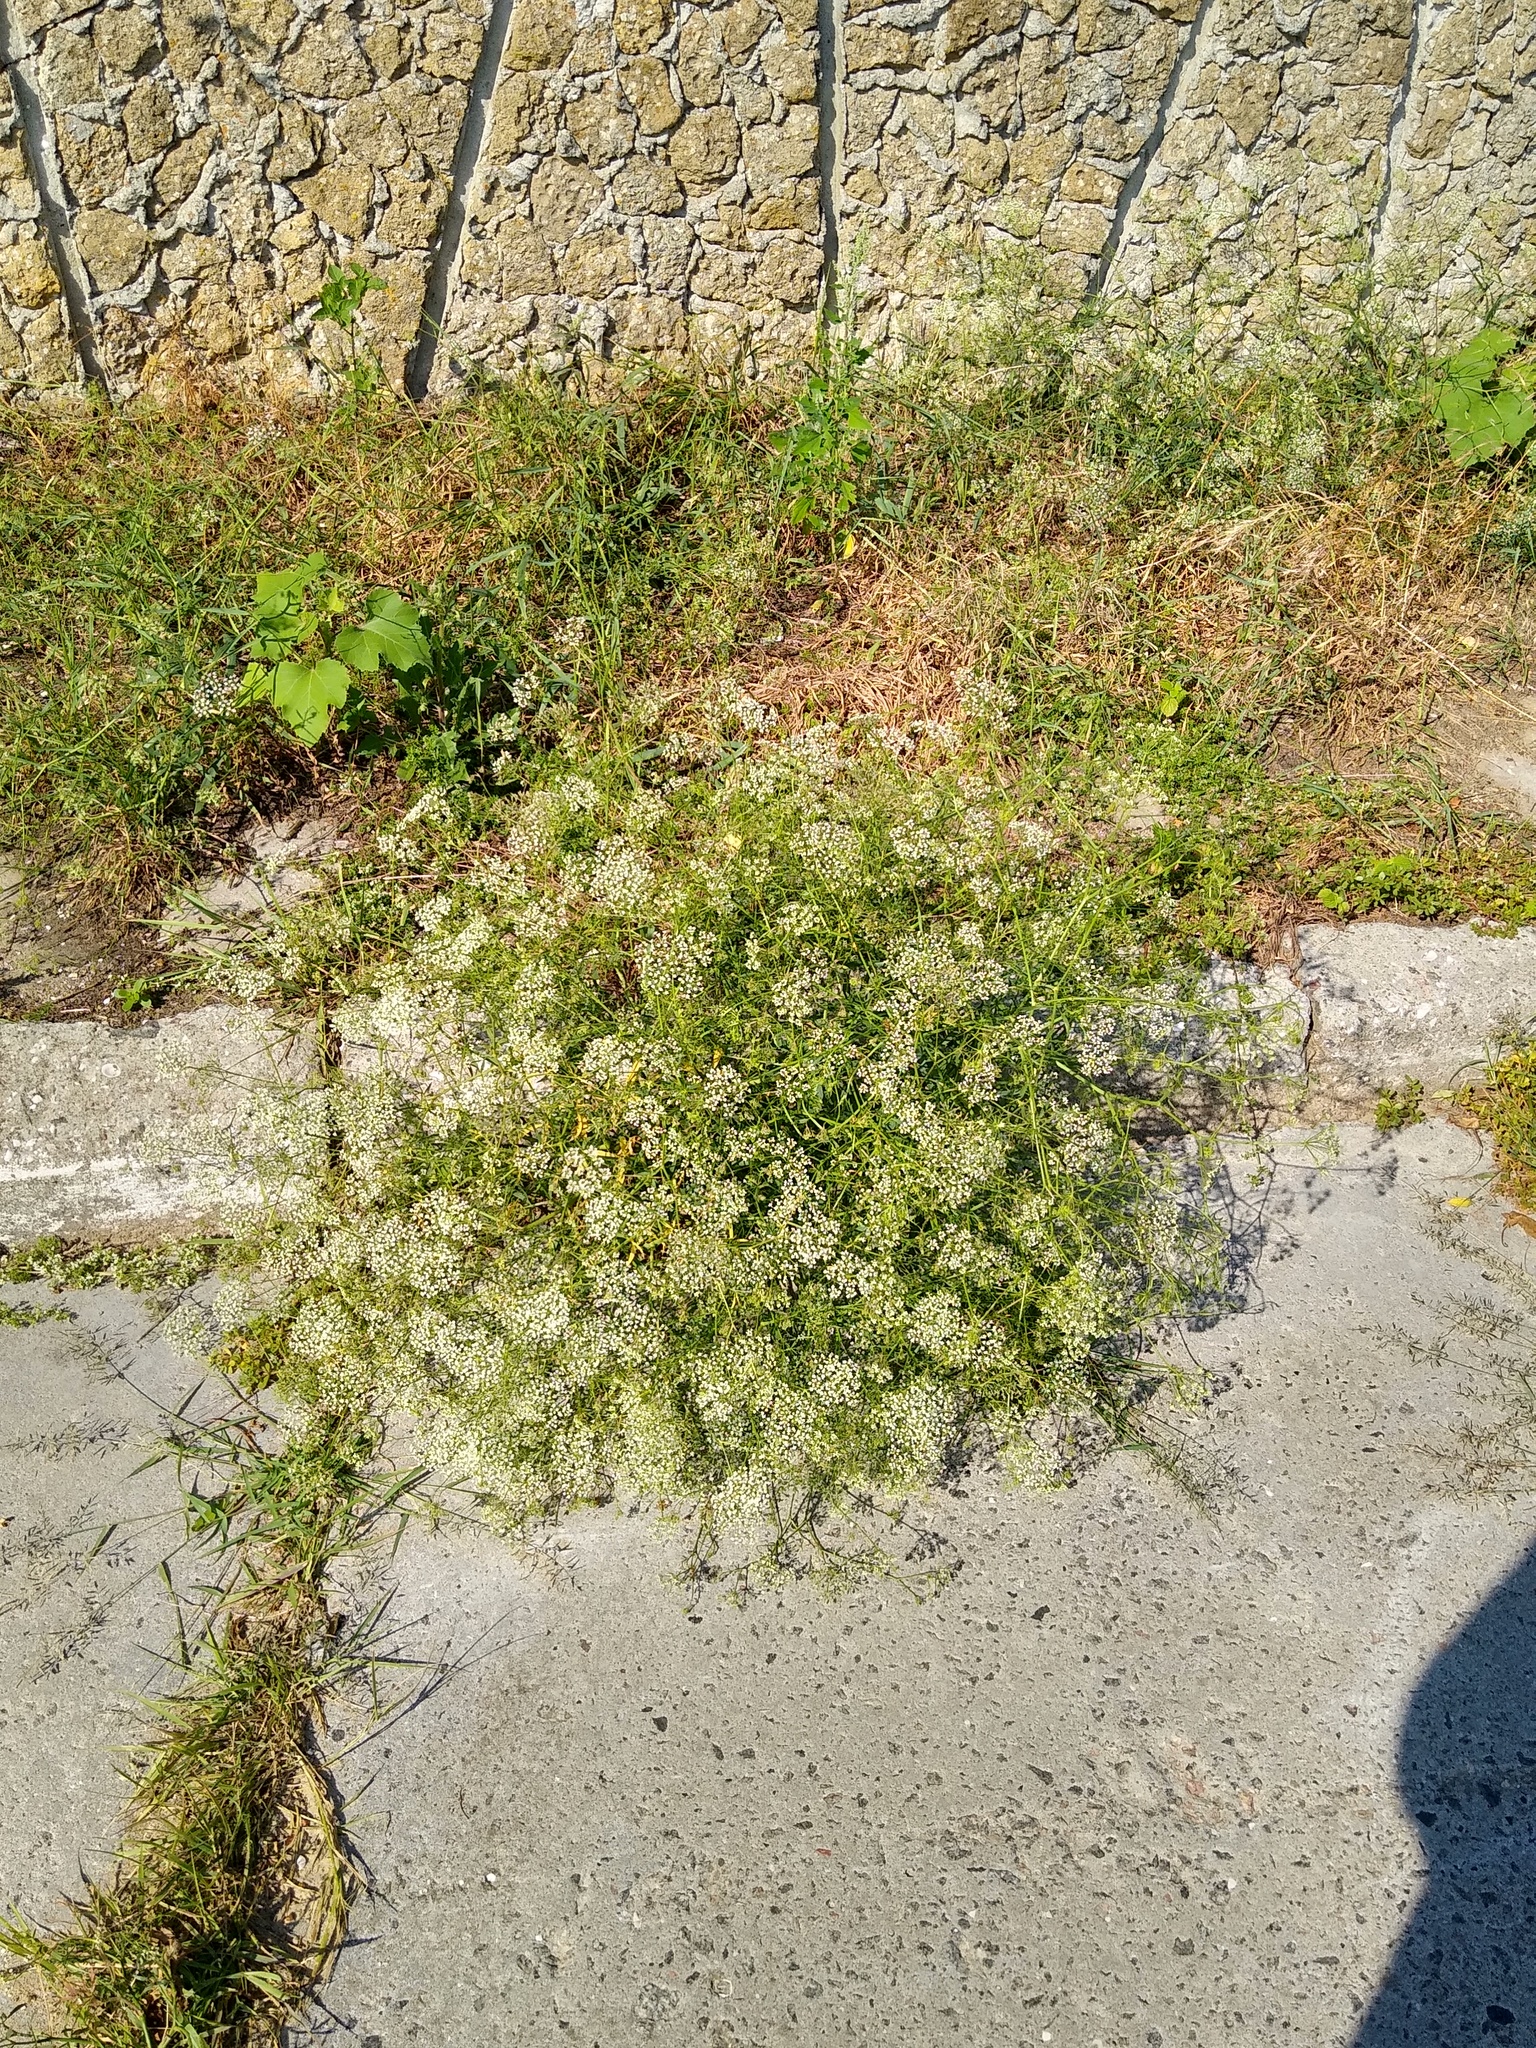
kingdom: Plantae
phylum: Tracheophyta
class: Magnoliopsida
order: Apiales
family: Apiaceae
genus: Falcaria
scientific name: Falcaria vulgaris
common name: Longleaf
